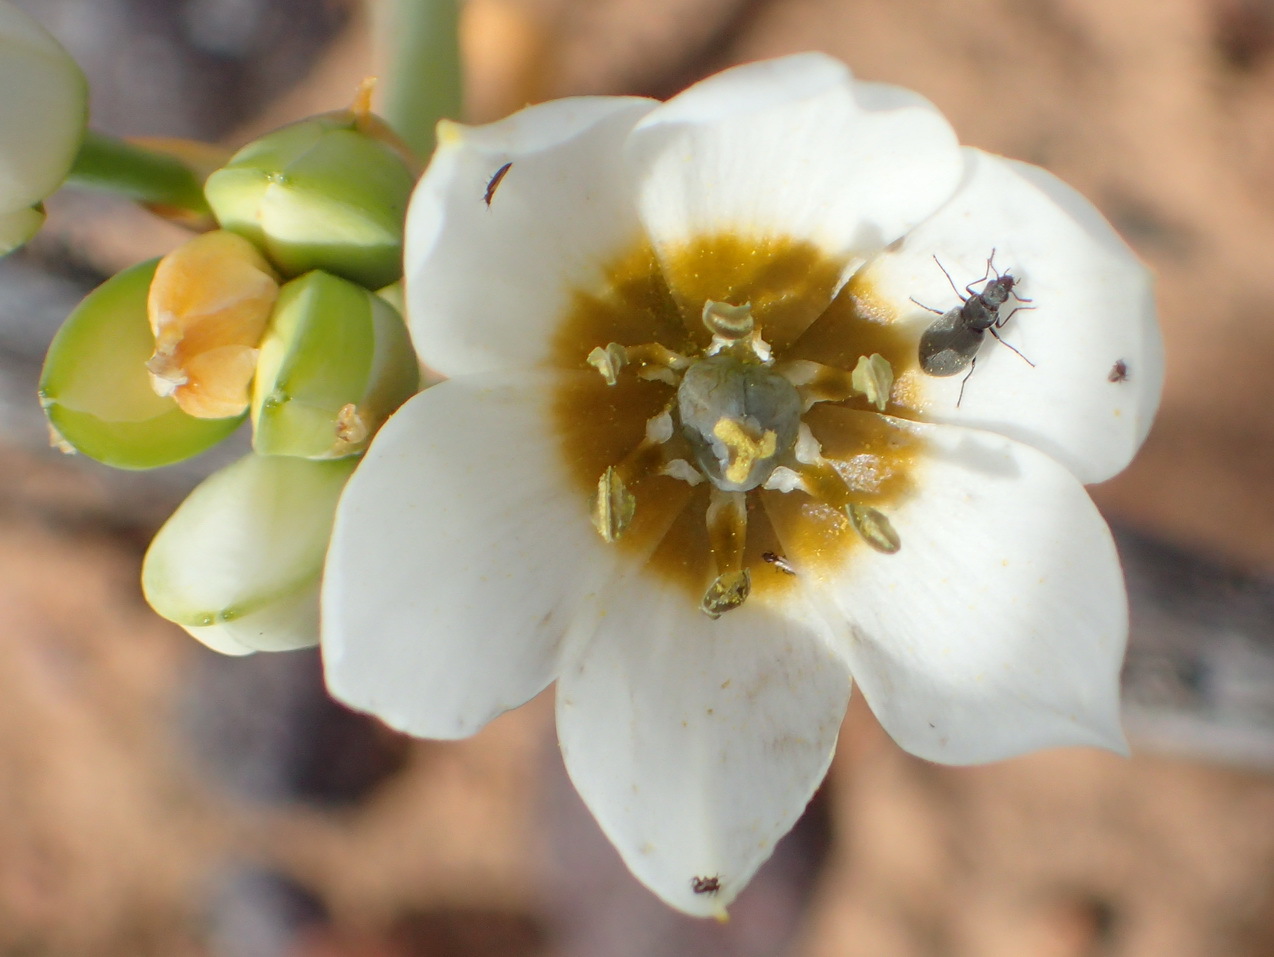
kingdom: Plantae
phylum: Tracheophyta
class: Liliopsida
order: Asparagales
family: Asparagaceae
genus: Ornithogalum
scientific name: Ornithogalum dubium
